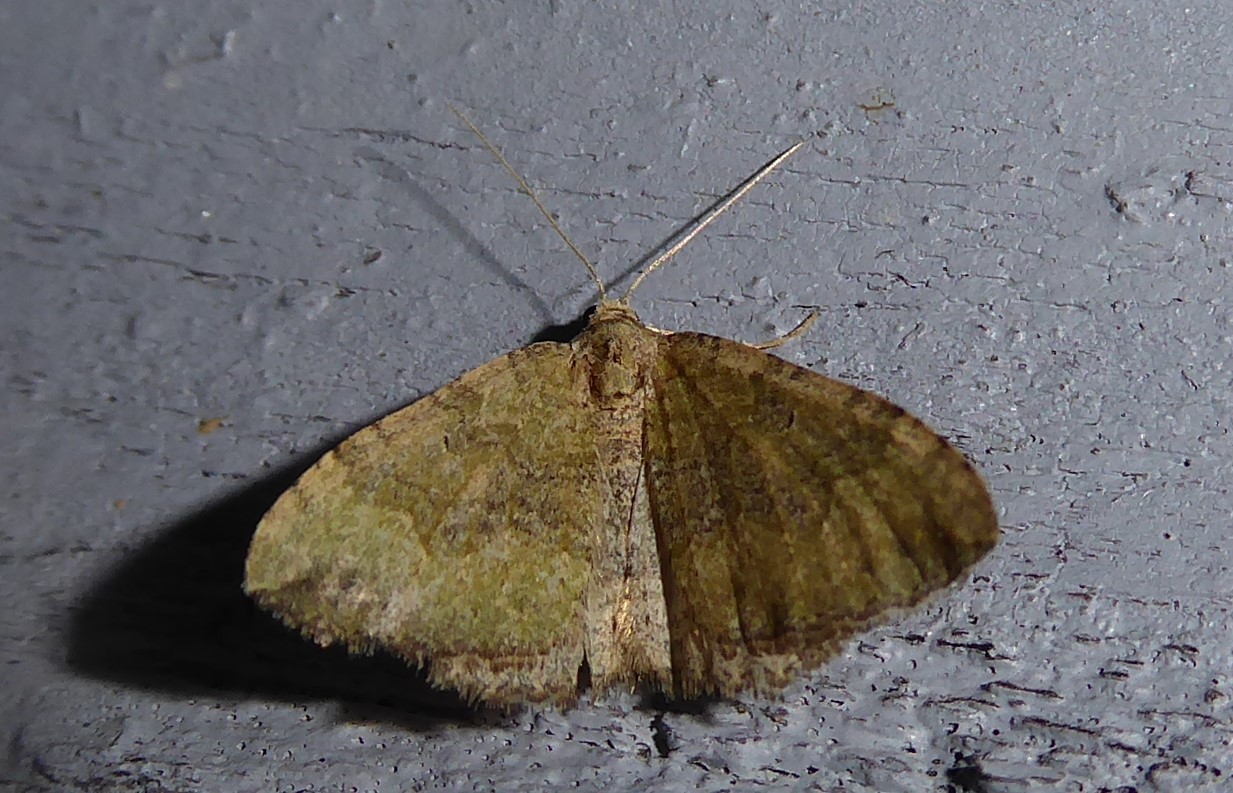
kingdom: Animalia
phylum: Arthropoda
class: Insecta
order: Lepidoptera
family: Geometridae
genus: Epyaxa
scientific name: Epyaxa rosearia
